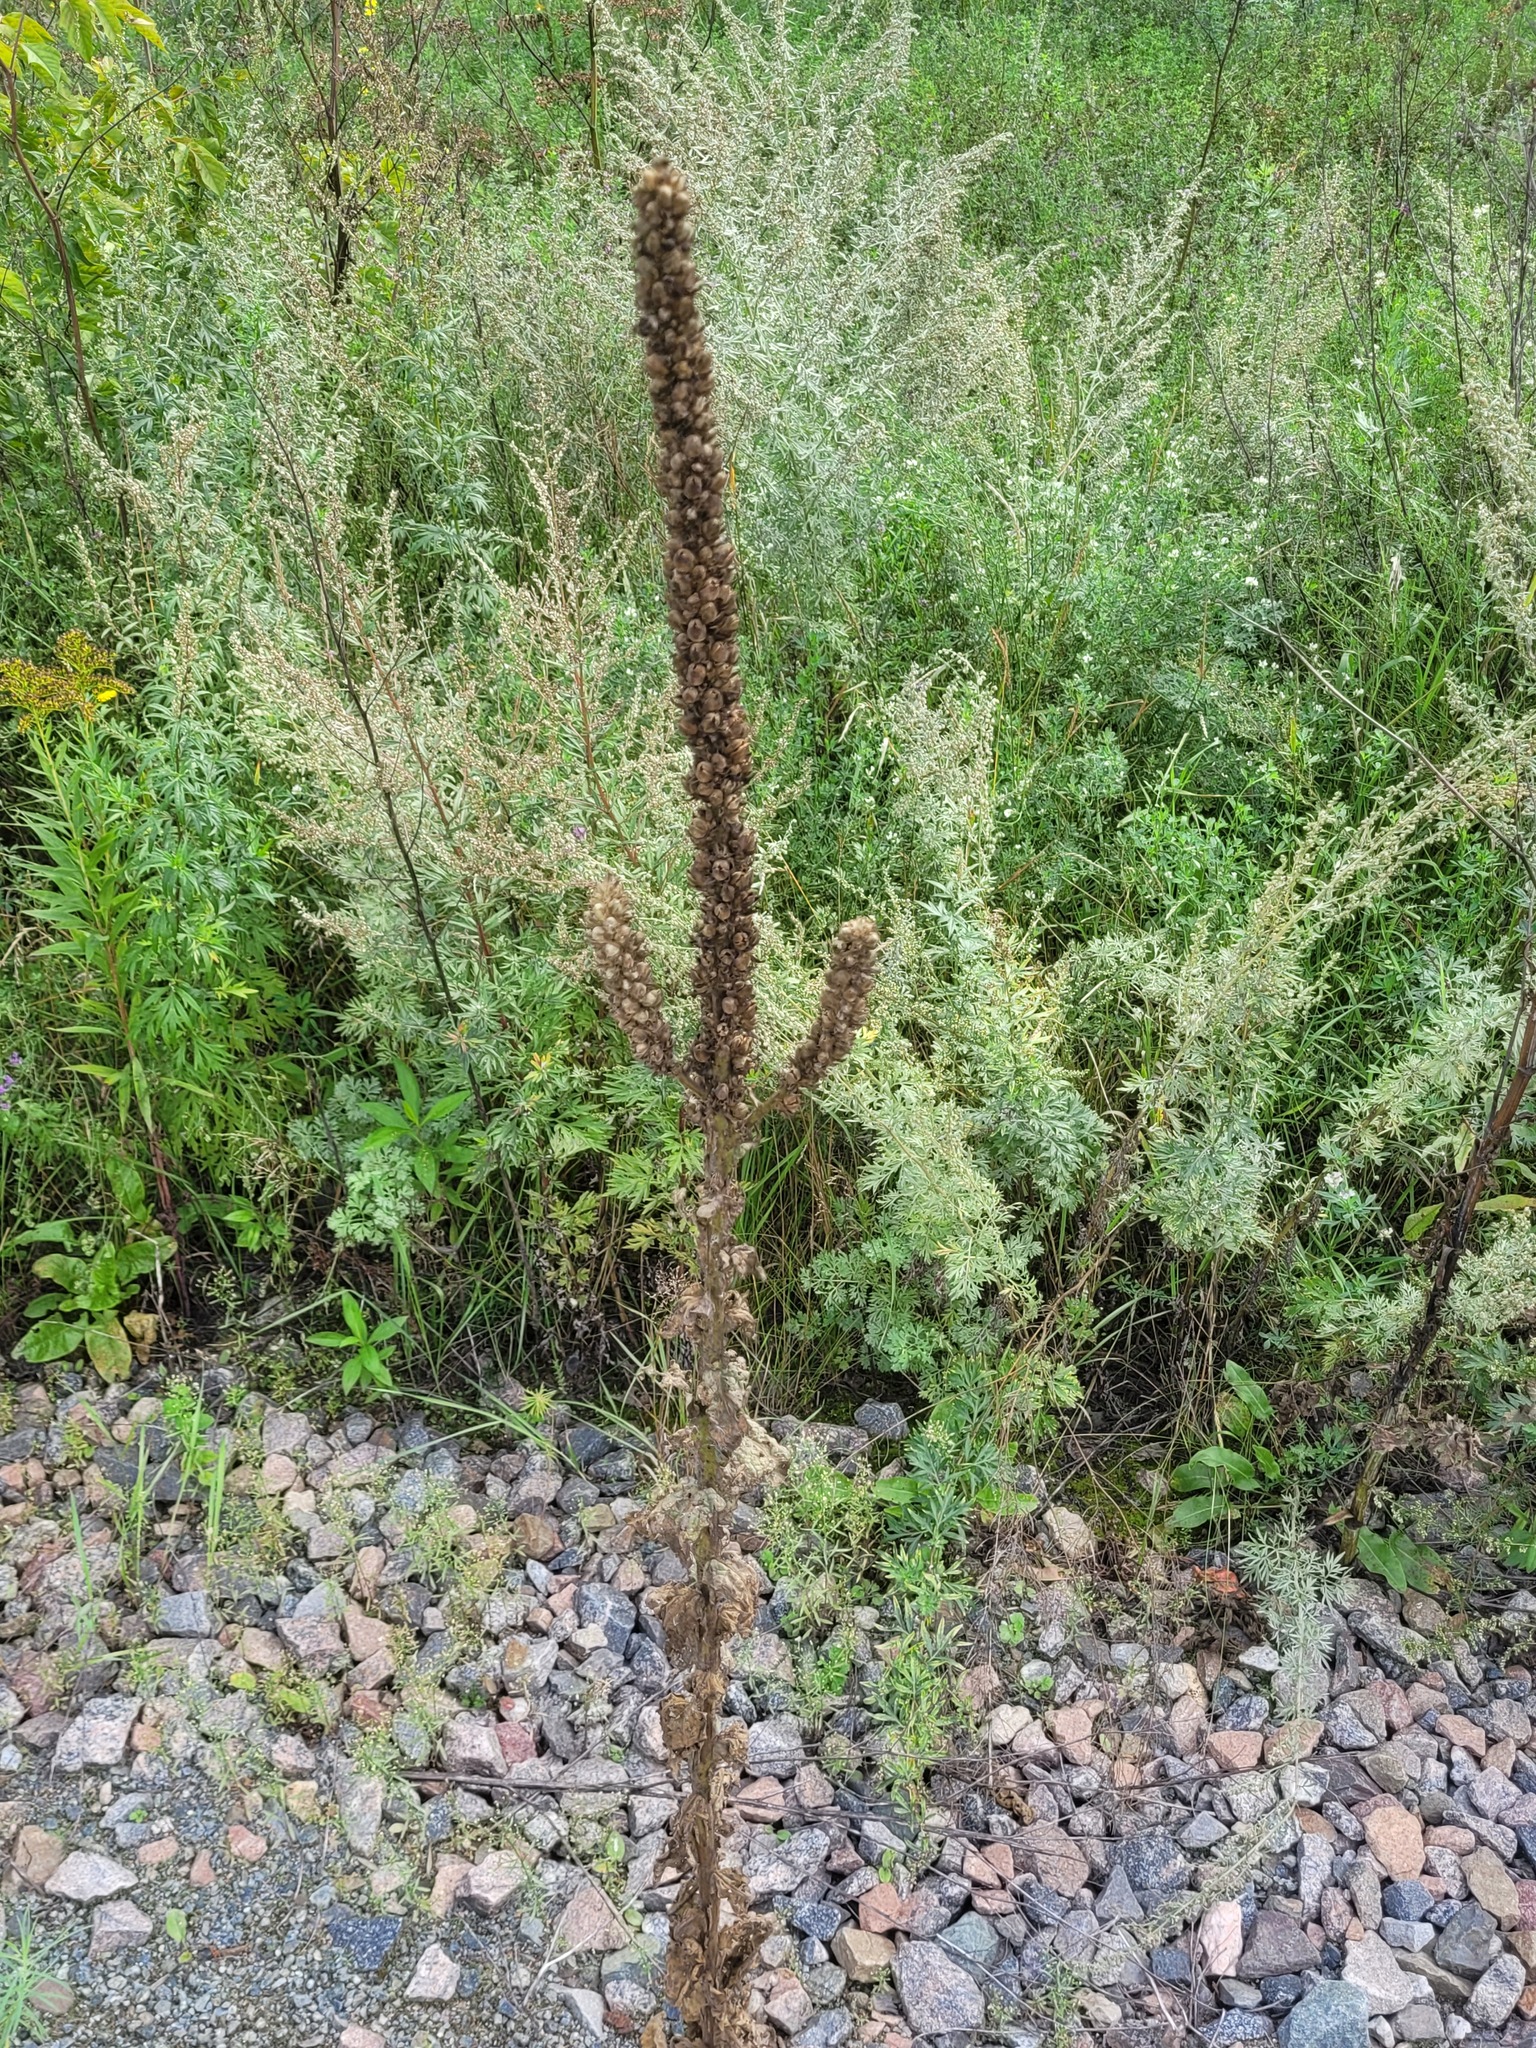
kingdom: Plantae
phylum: Tracheophyta
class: Magnoliopsida
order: Lamiales
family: Scrophulariaceae
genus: Verbascum
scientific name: Verbascum thapsus
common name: Common mullein
